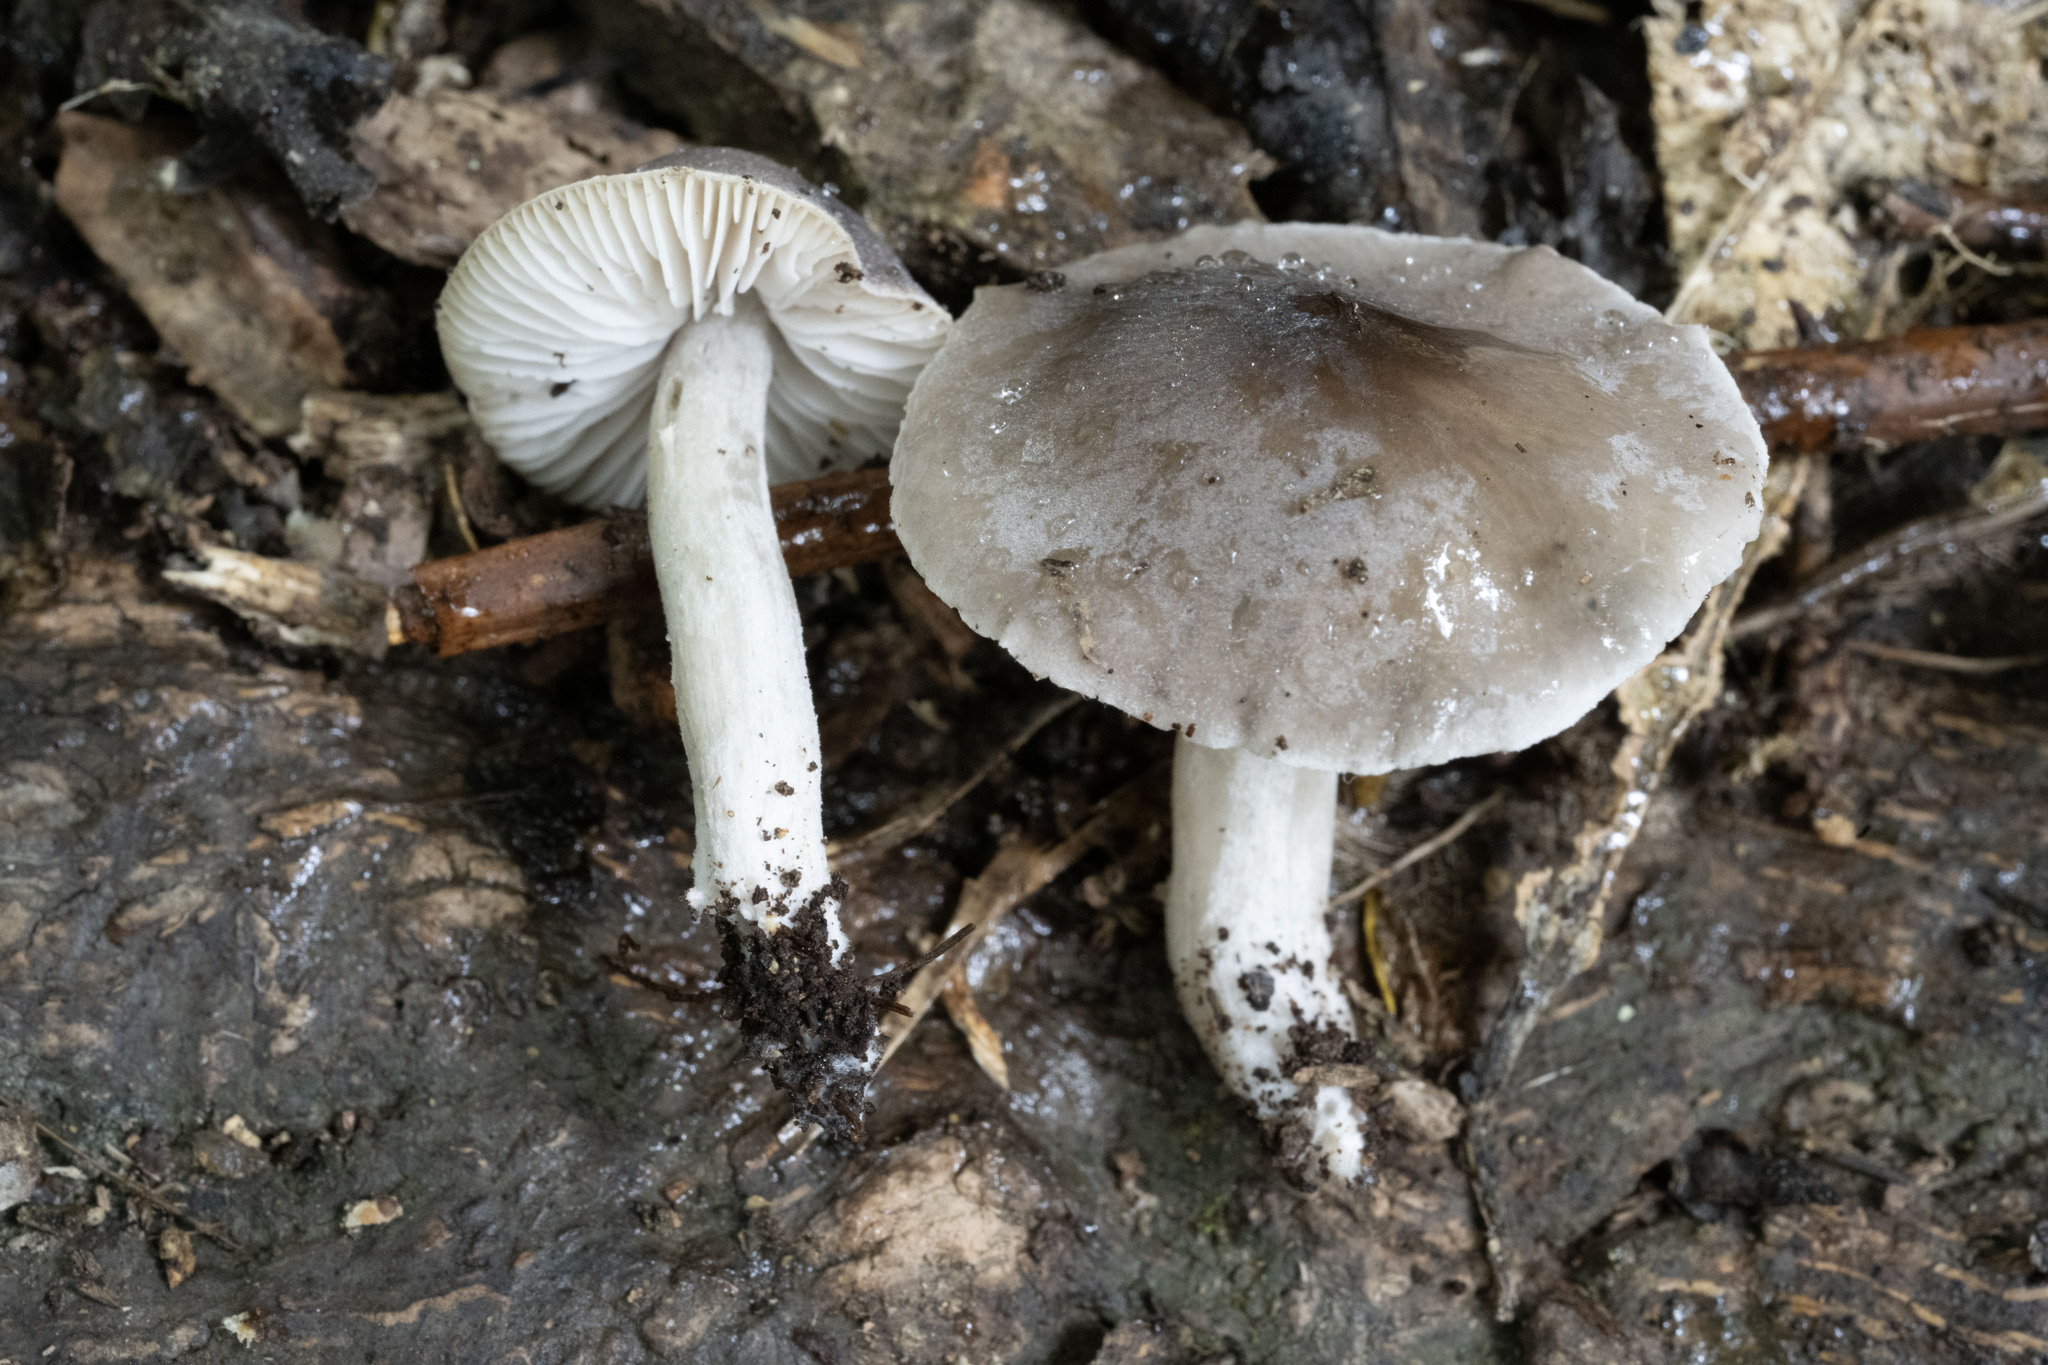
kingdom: Fungi
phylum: Basidiomycota
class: Agaricomycetes
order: Agaricales
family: Tricholomataceae
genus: Dermoloma
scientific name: Dermoloma murinum
